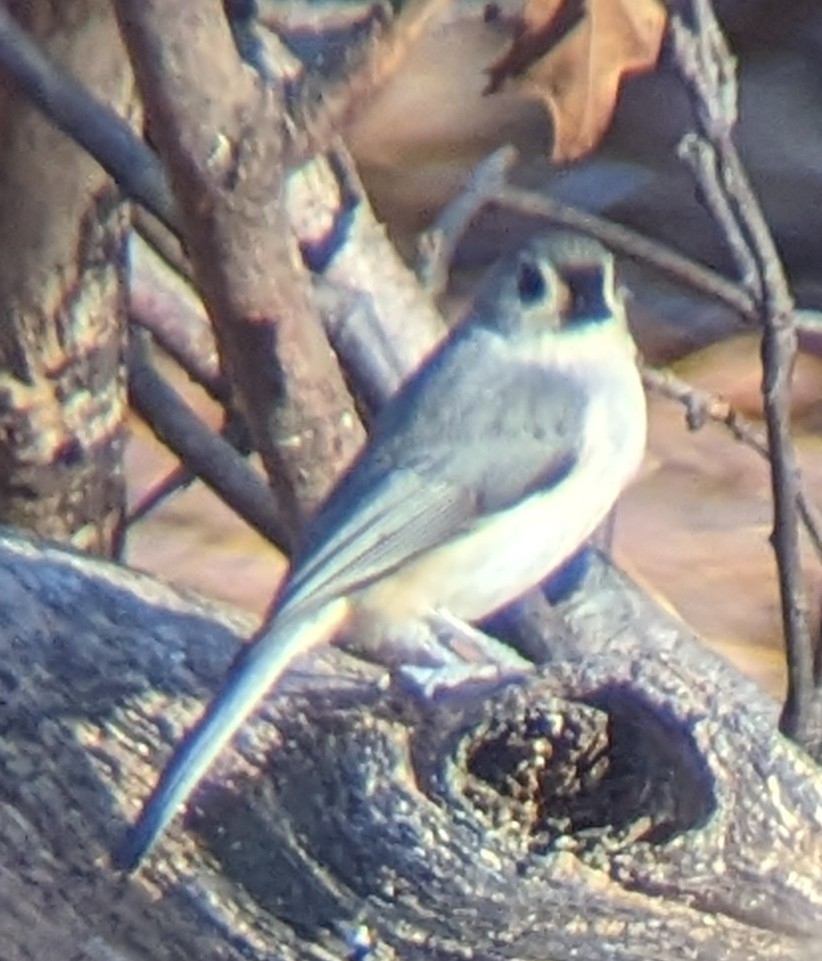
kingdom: Animalia
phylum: Chordata
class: Aves
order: Passeriformes
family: Paridae
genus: Baeolophus
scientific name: Baeolophus bicolor
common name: Tufted titmouse
